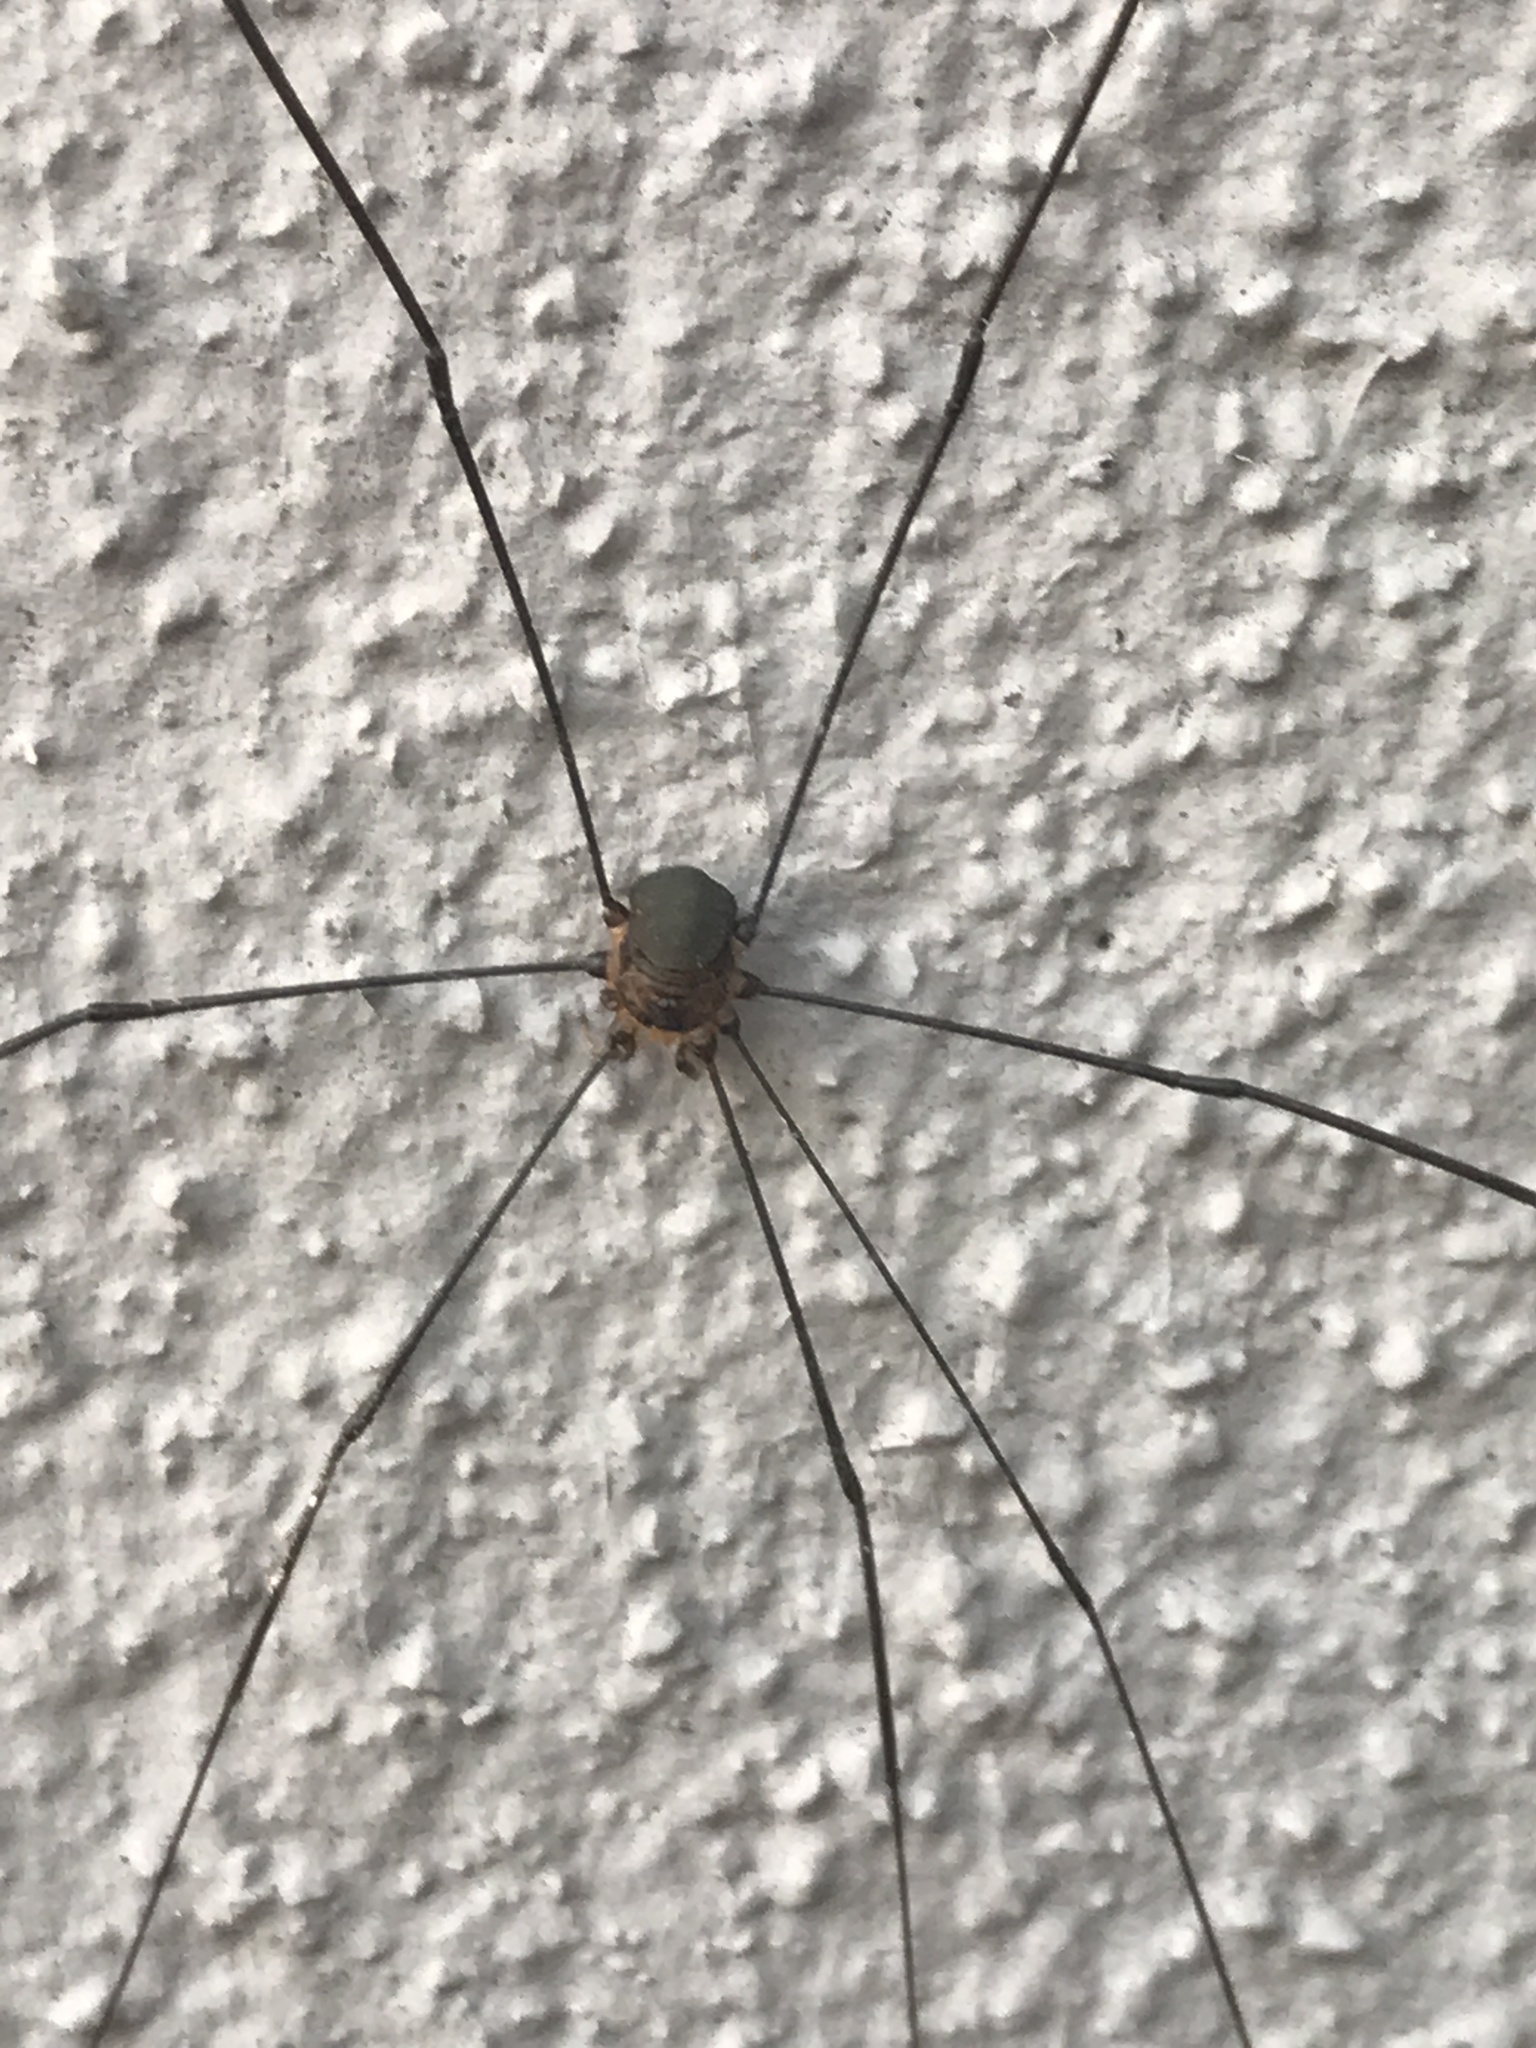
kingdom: Animalia
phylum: Arthropoda
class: Arachnida
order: Opiliones
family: Sclerosomatidae
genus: Leiobunum
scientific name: Leiobunum
